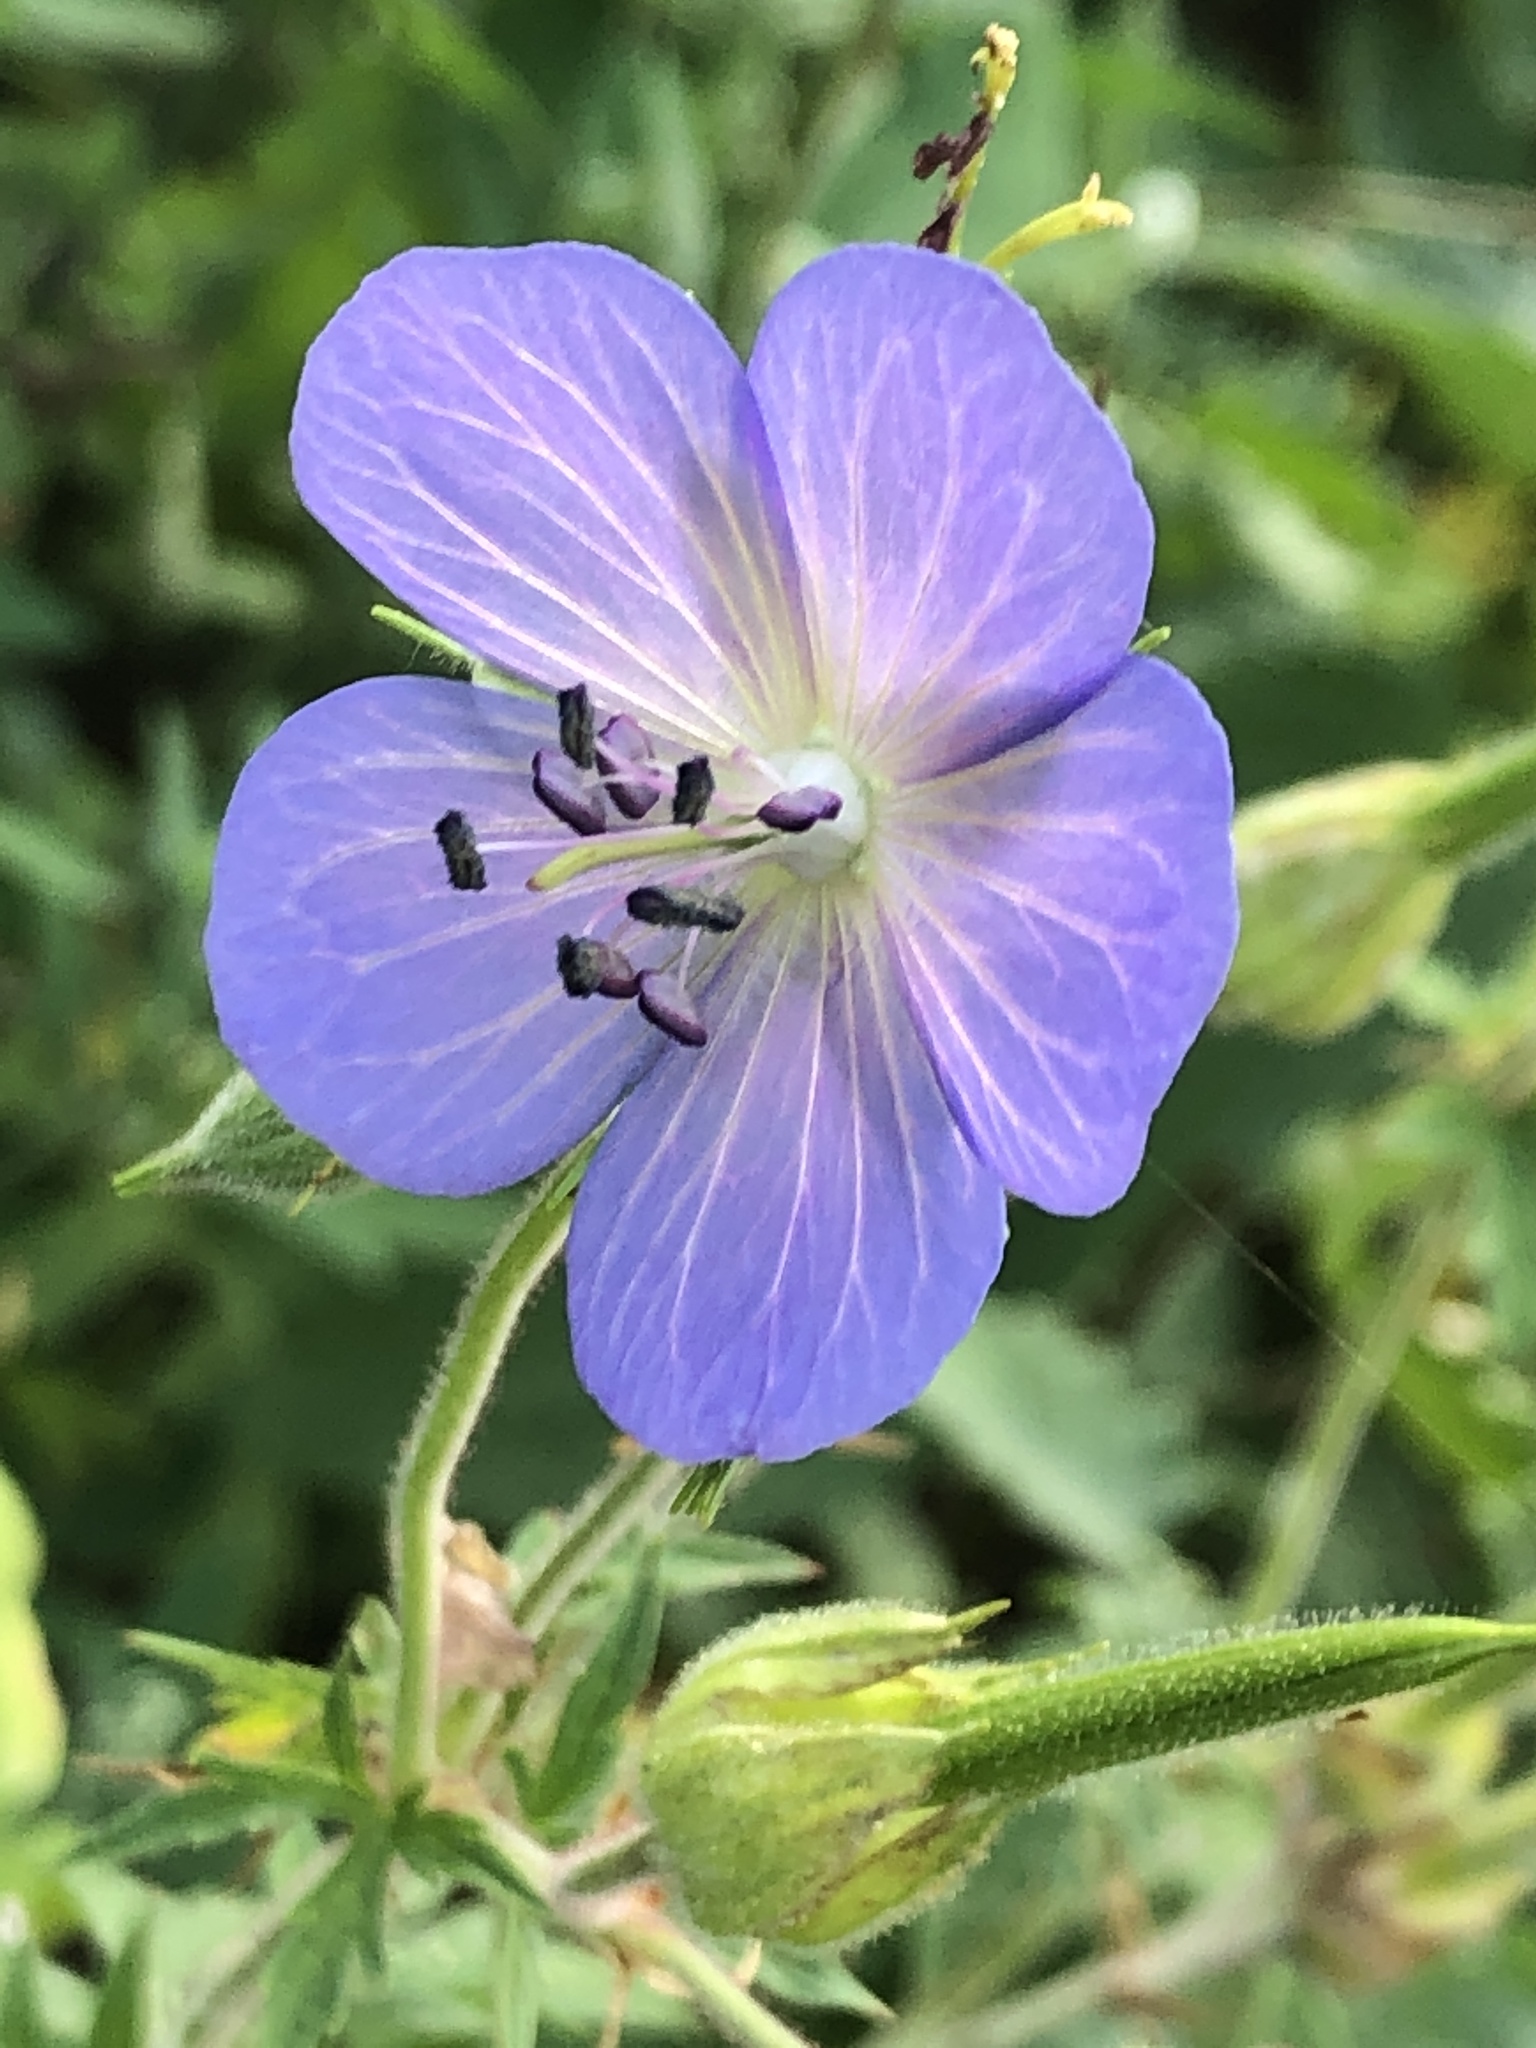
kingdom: Plantae
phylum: Tracheophyta
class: Magnoliopsida
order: Geraniales
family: Geraniaceae
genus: Geranium
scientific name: Geranium pratense
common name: Meadow crane's-bill
